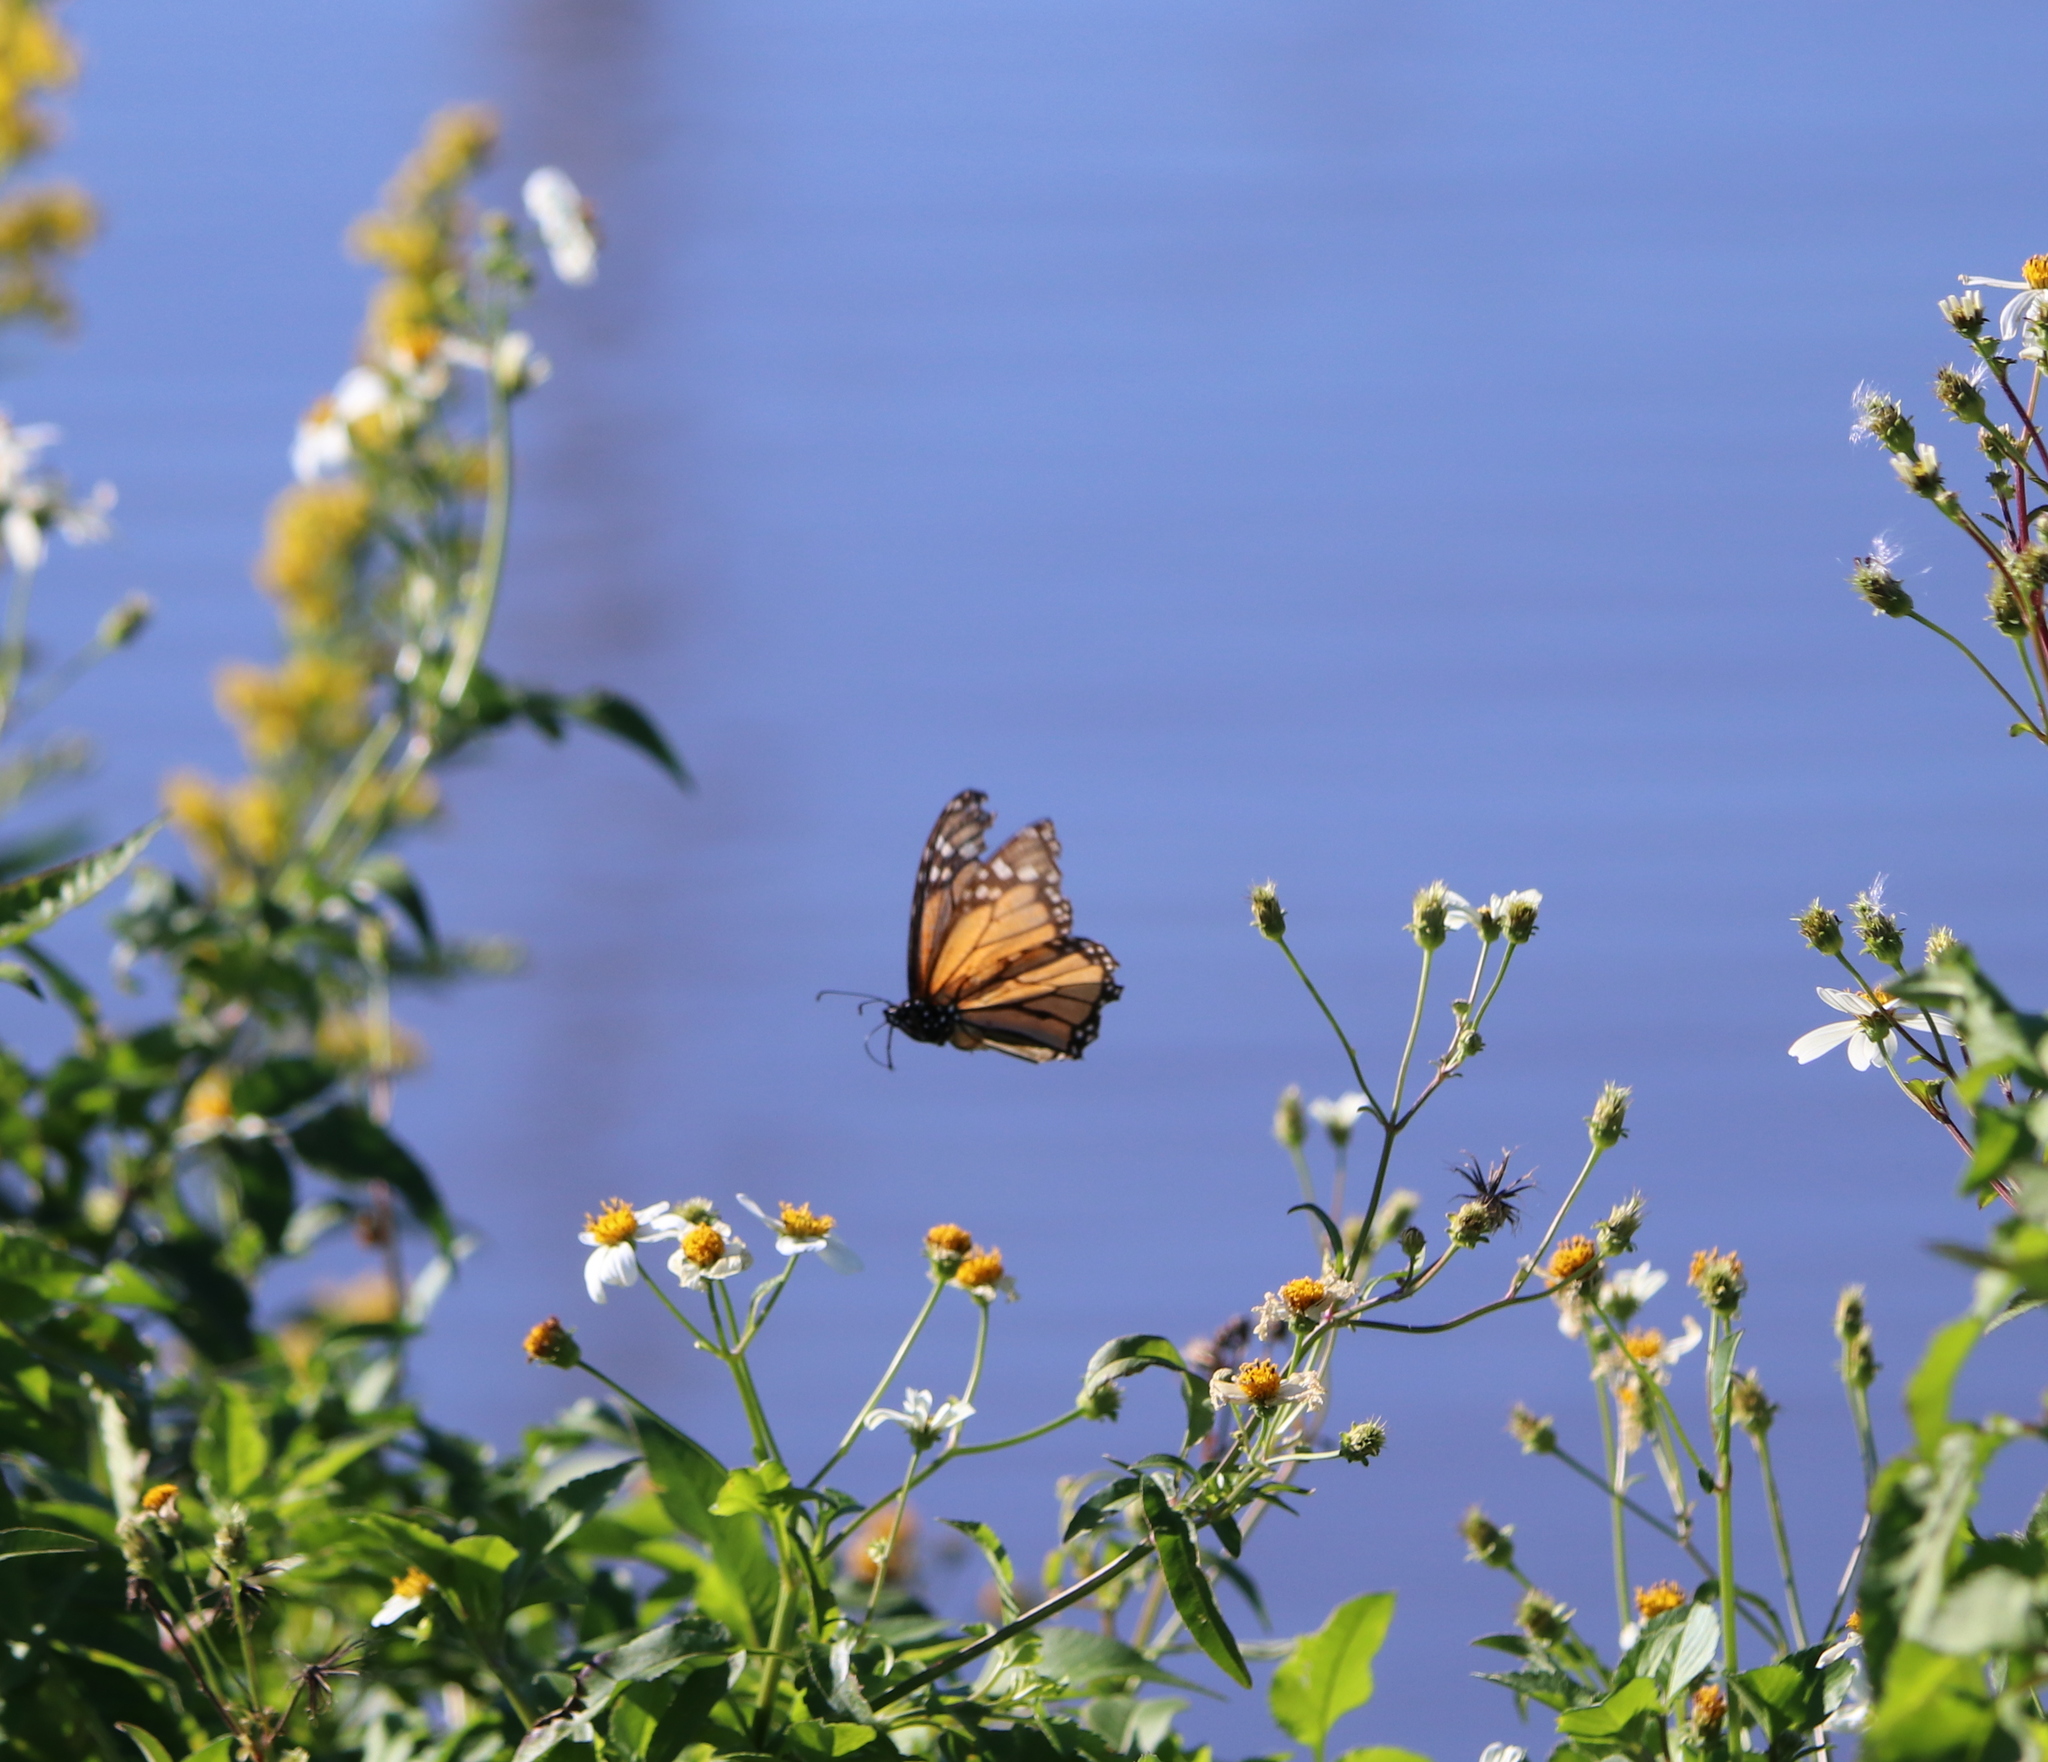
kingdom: Animalia
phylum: Arthropoda
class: Insecta
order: Lepidoptera
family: Nymphalidae
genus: Danaus
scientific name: Danaus plexippus
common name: Monarch
